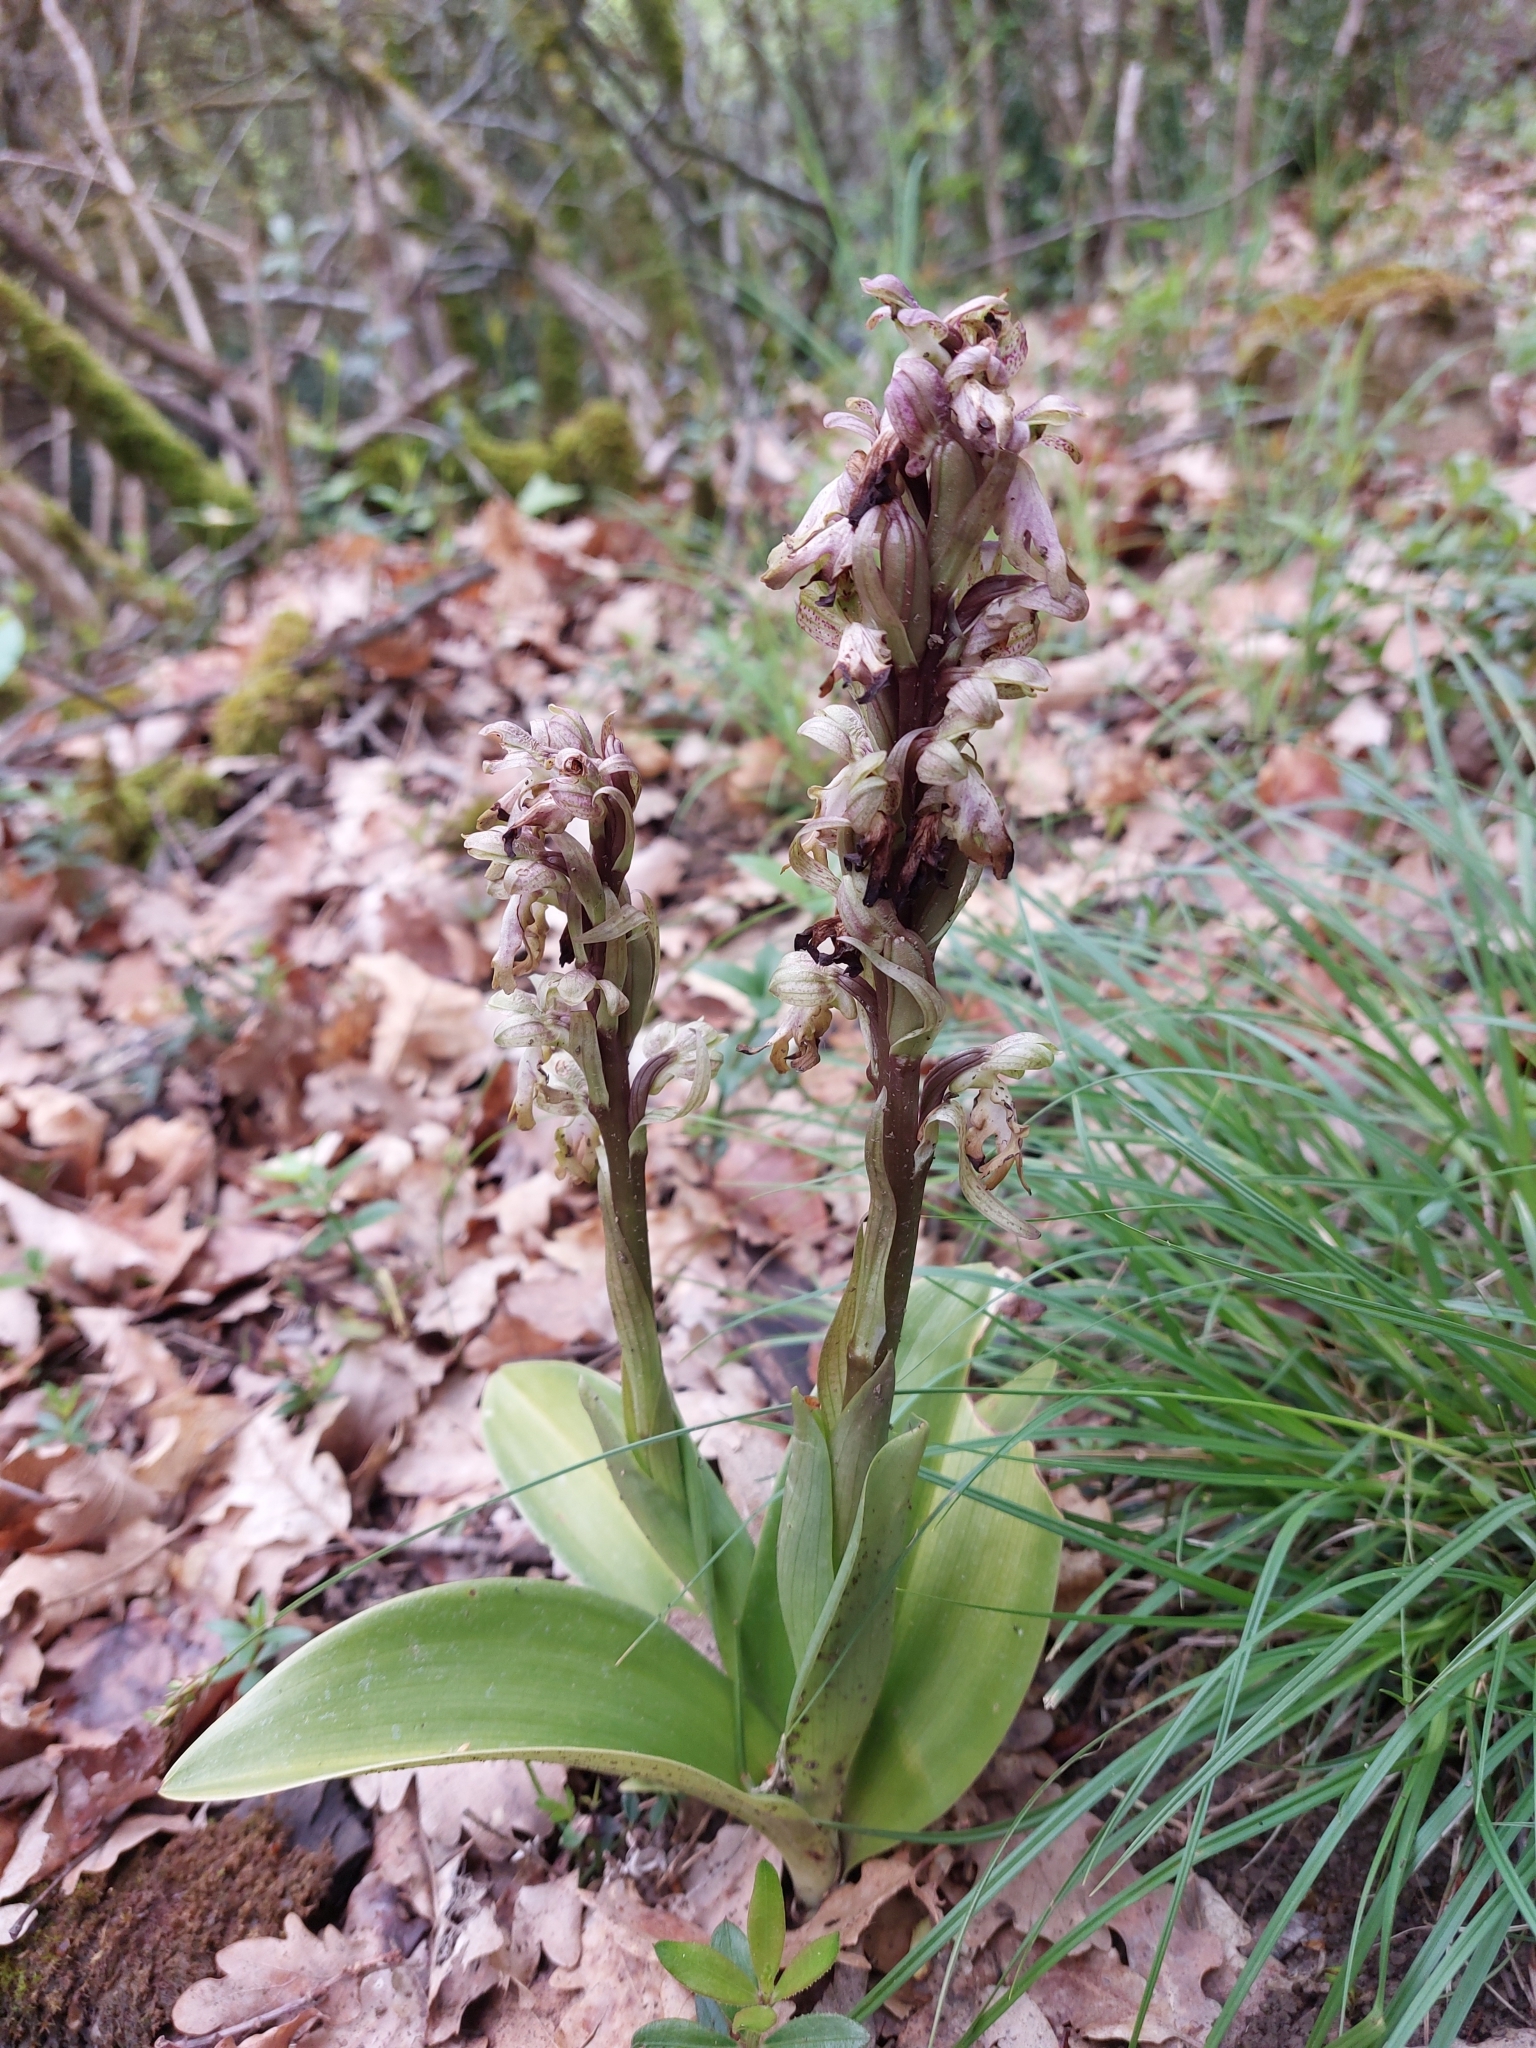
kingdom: Plantae
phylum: Tracheophyta
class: Liliopsida
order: Asparagales
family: Orchidaceae
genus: Himantoglossum
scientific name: Himantoglossum robertianum
